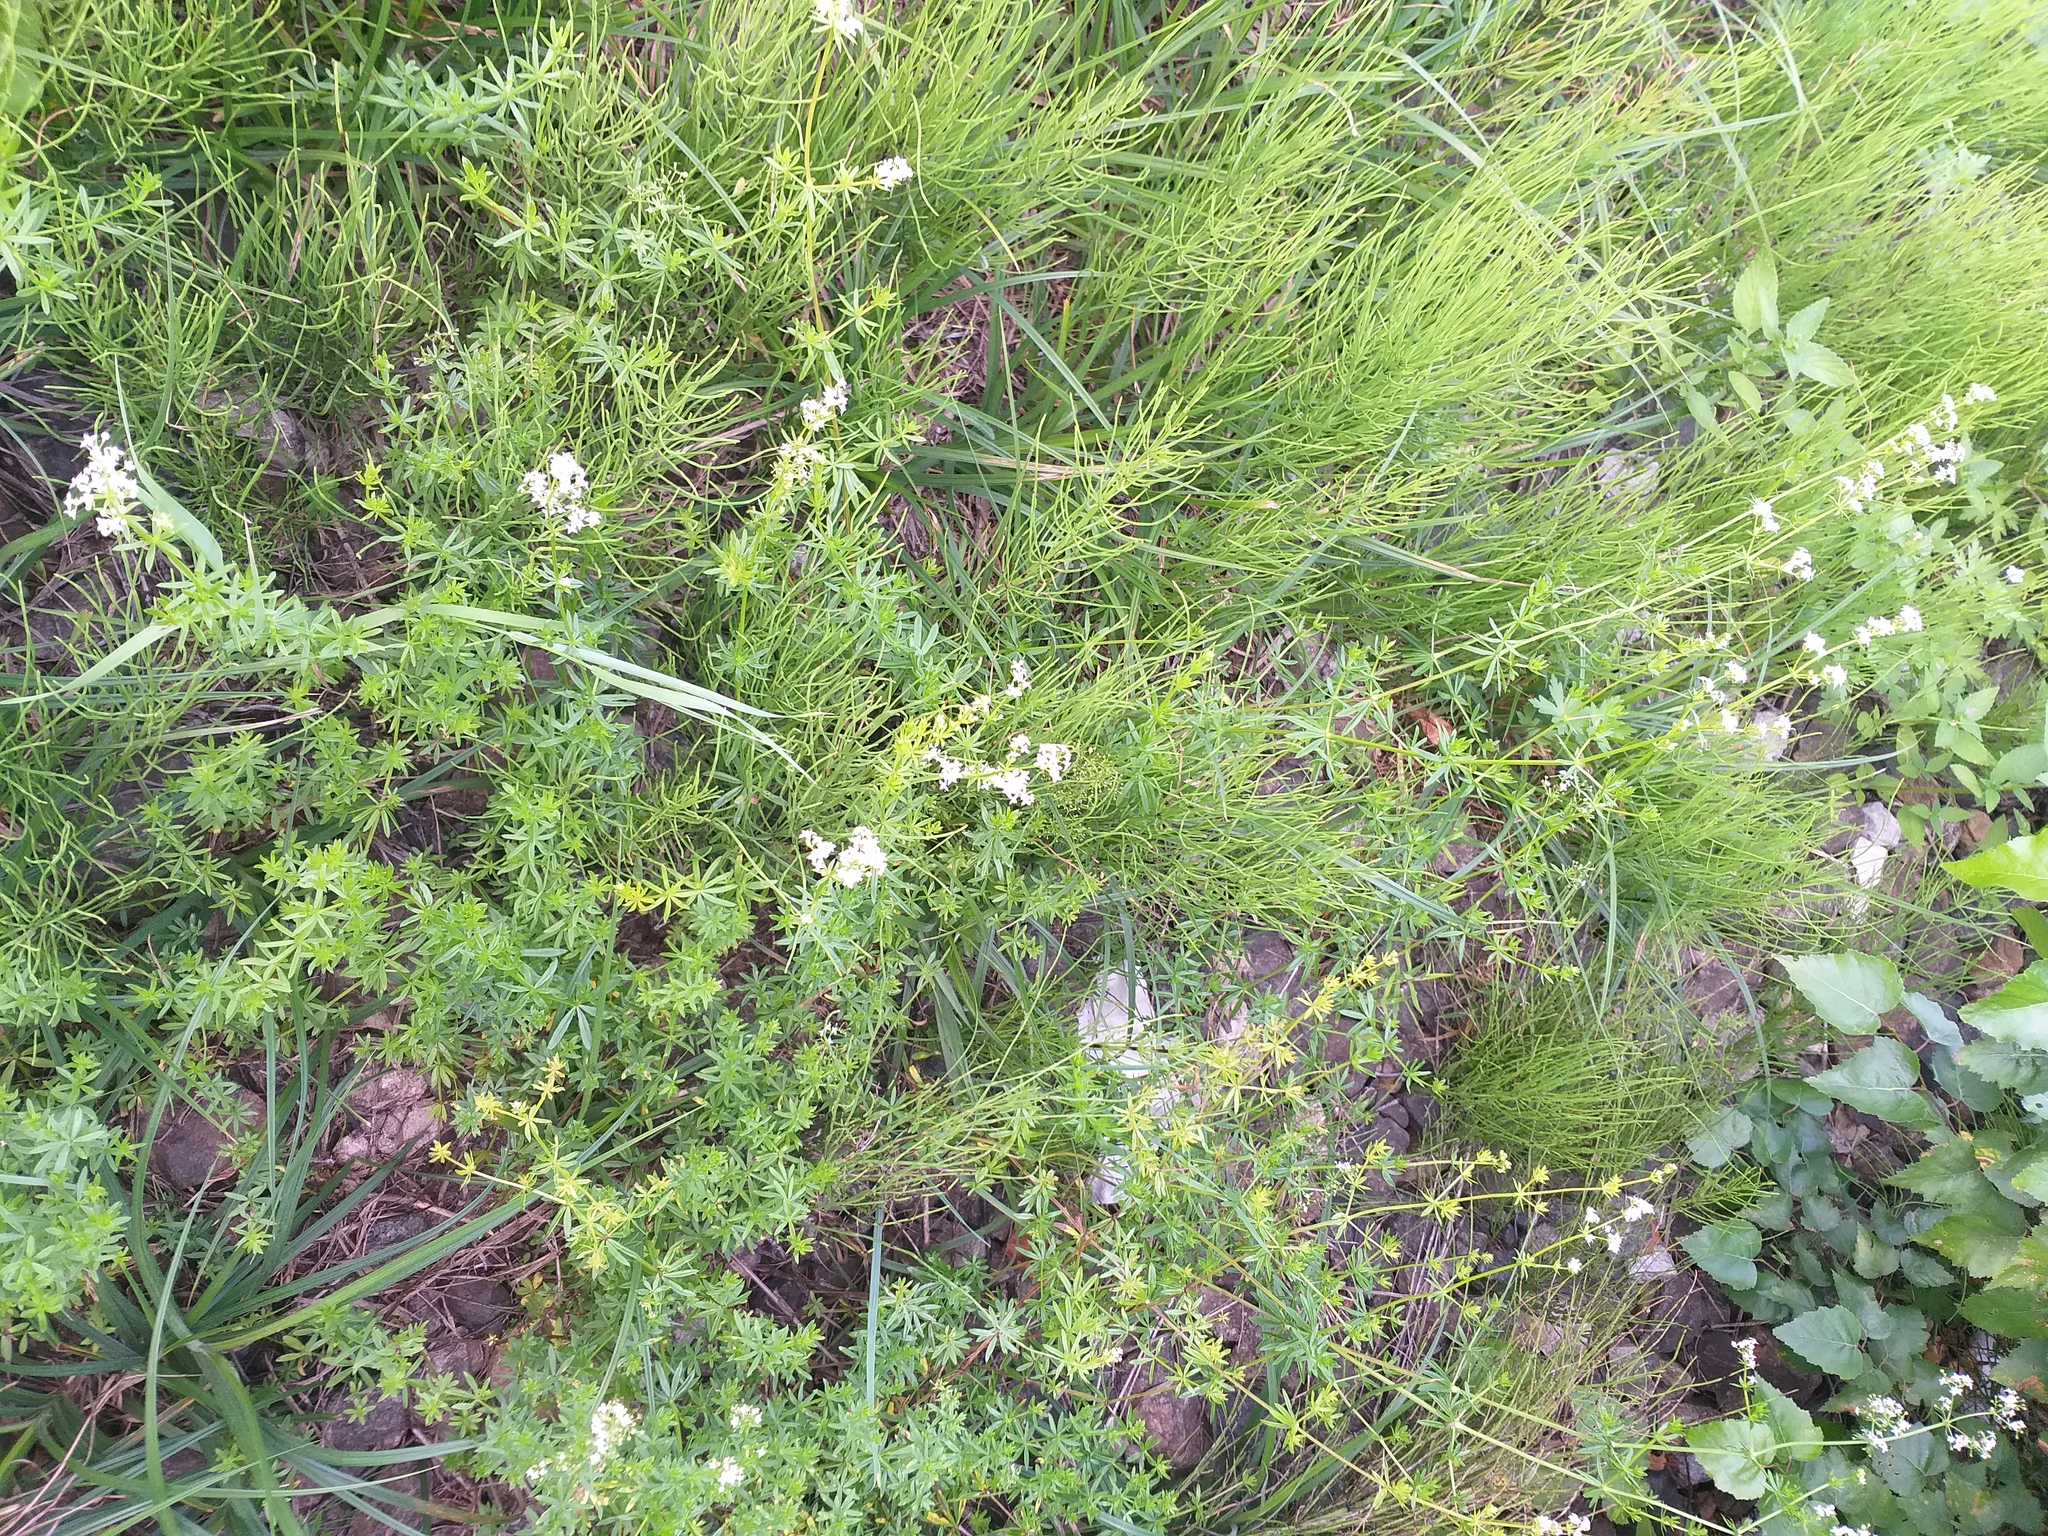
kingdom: Plantae
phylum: Tracheophyta
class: Magnoliopsida
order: Gentianales
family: Rubiaceae
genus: Galium
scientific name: Galium mollugo
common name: Hedge bedstraw
